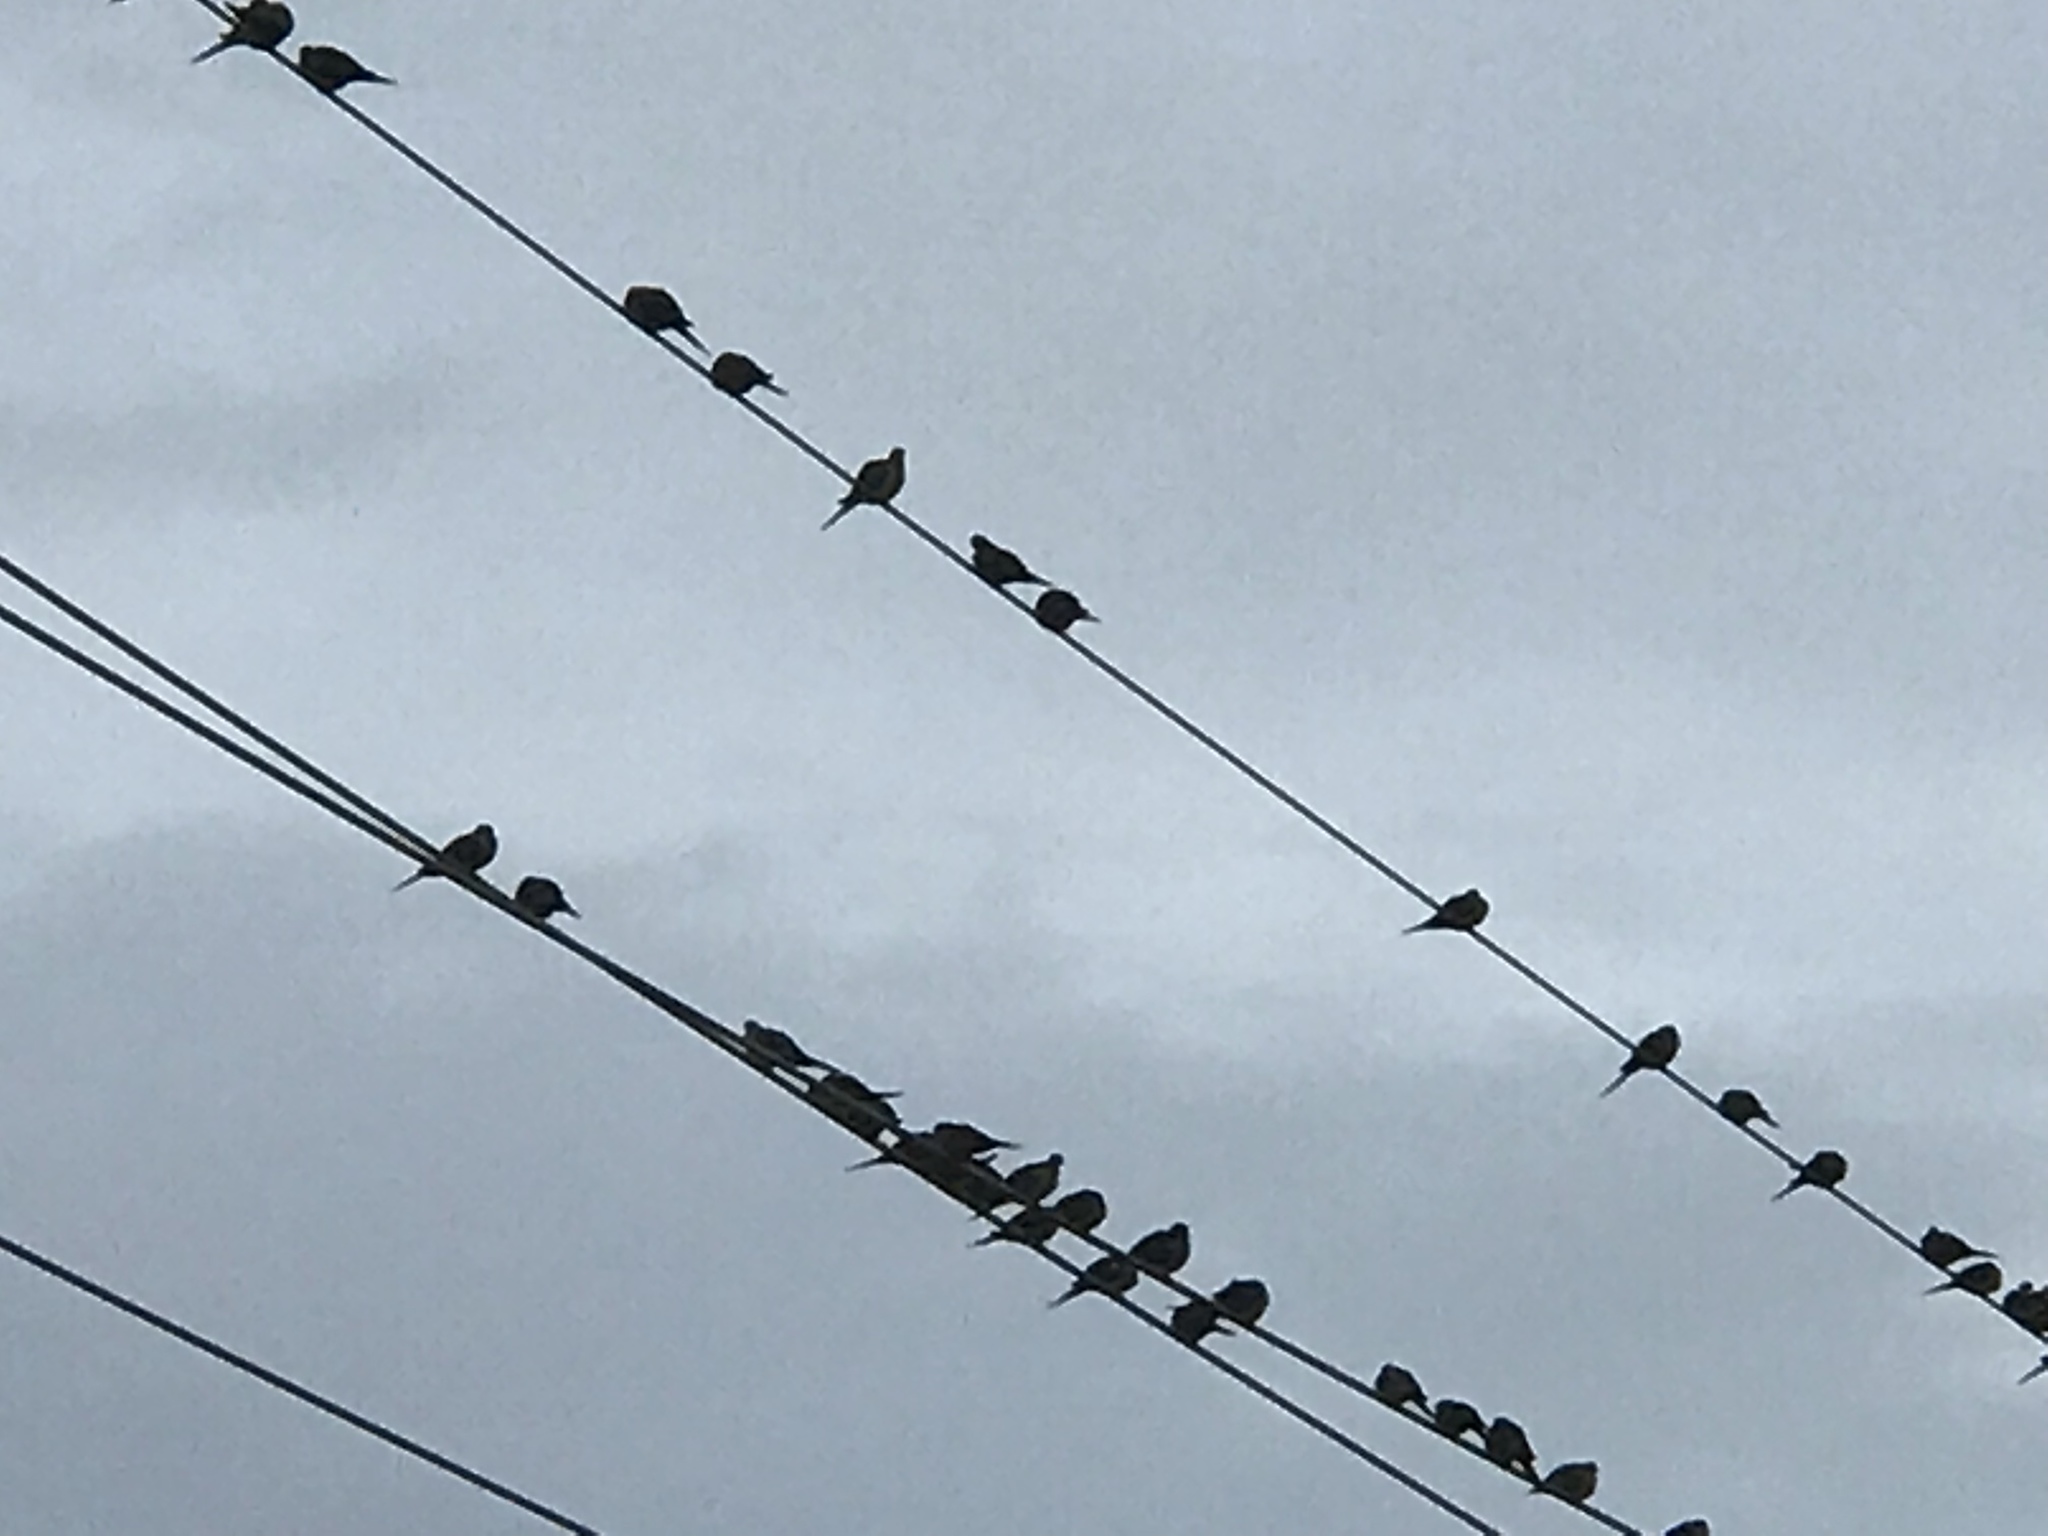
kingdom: Animalia
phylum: Chordata
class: Aves
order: Columbiformes
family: Columbidae
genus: Zenaida
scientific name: Zenaida macroura
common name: Mourning dove
